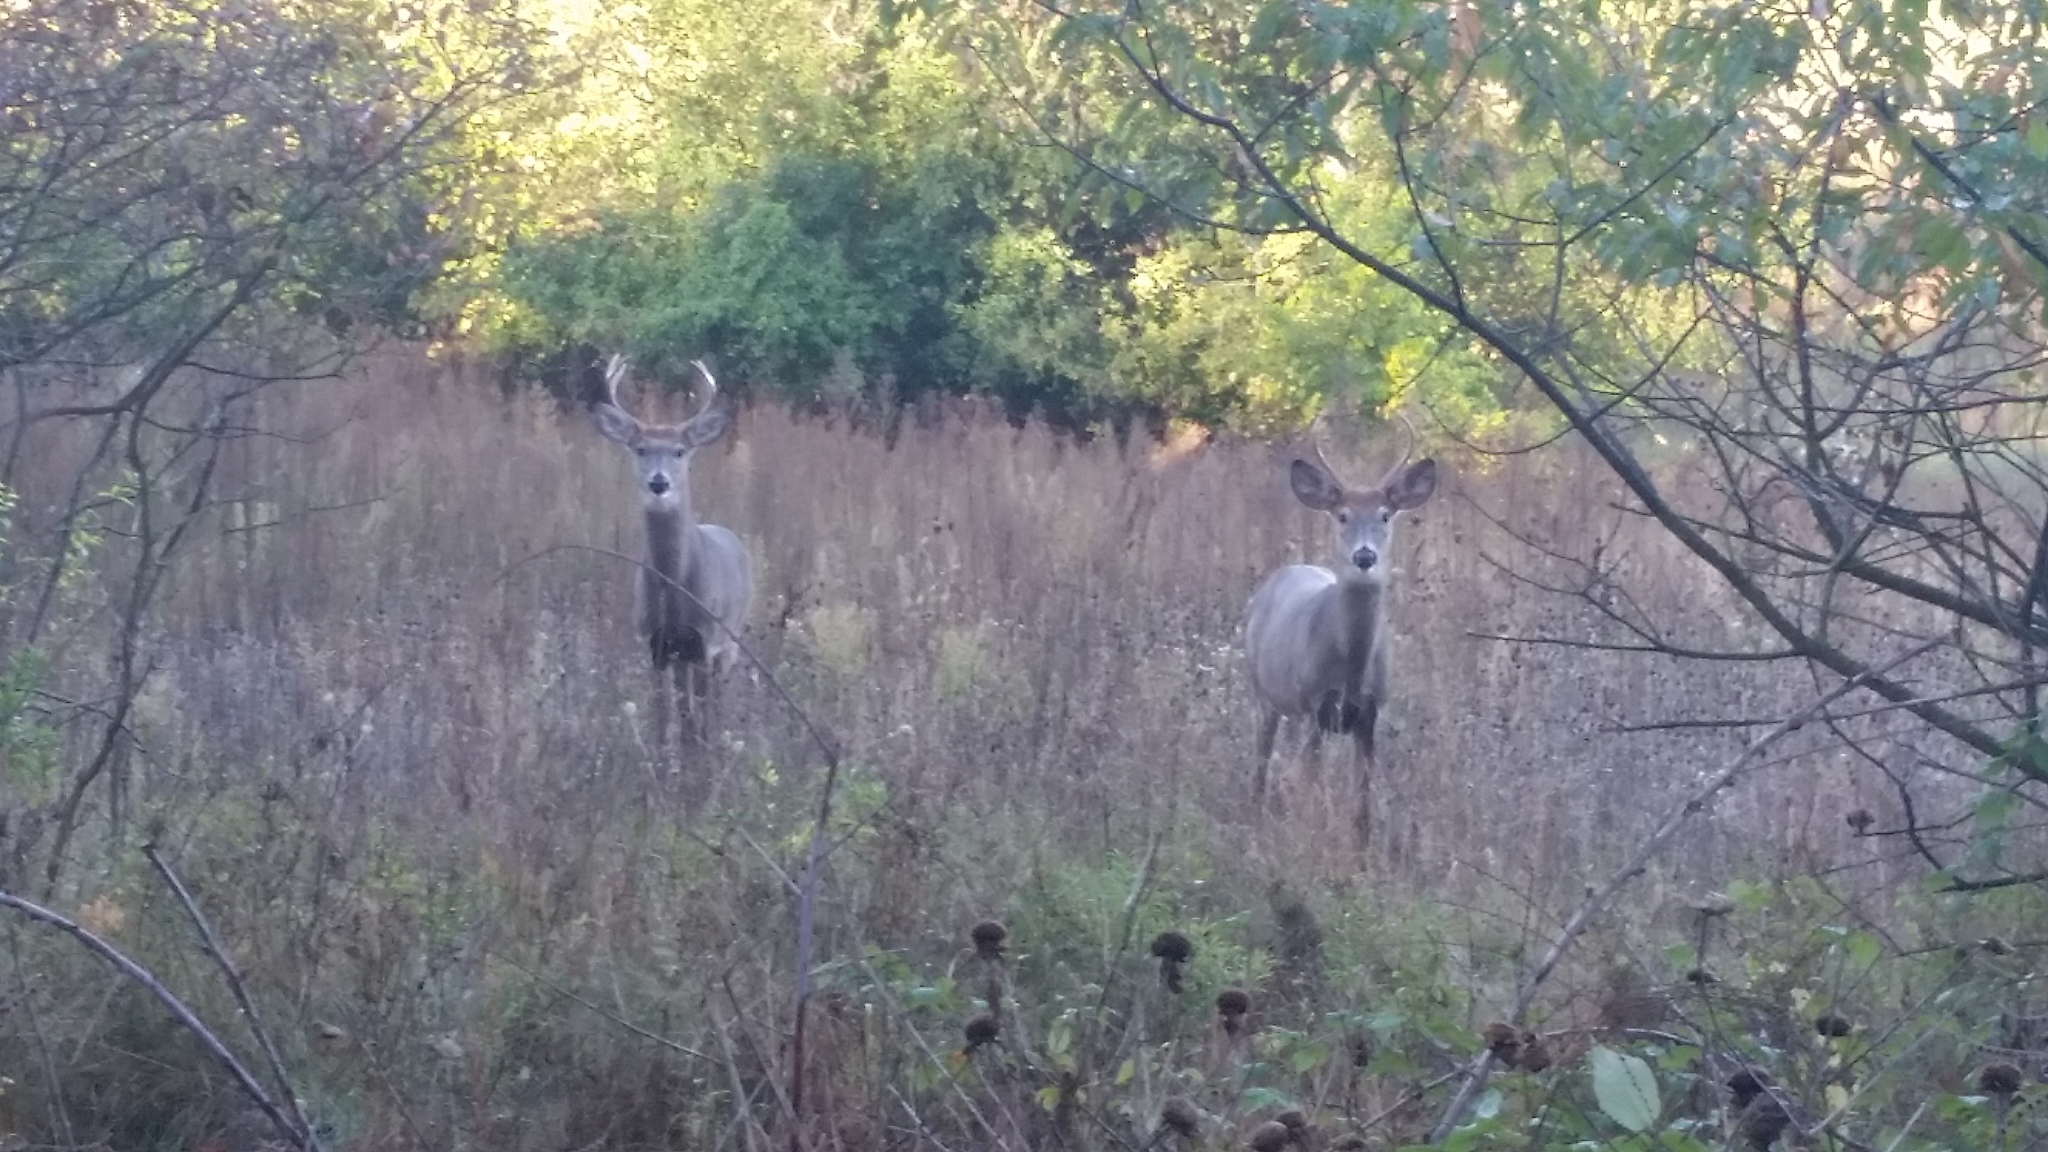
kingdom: Animalia
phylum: Chordata
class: Mammalia
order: Artiodactyla
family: Cervidae
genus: Odocoileus
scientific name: Odocoileus virginianus
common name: White-tailed deer
